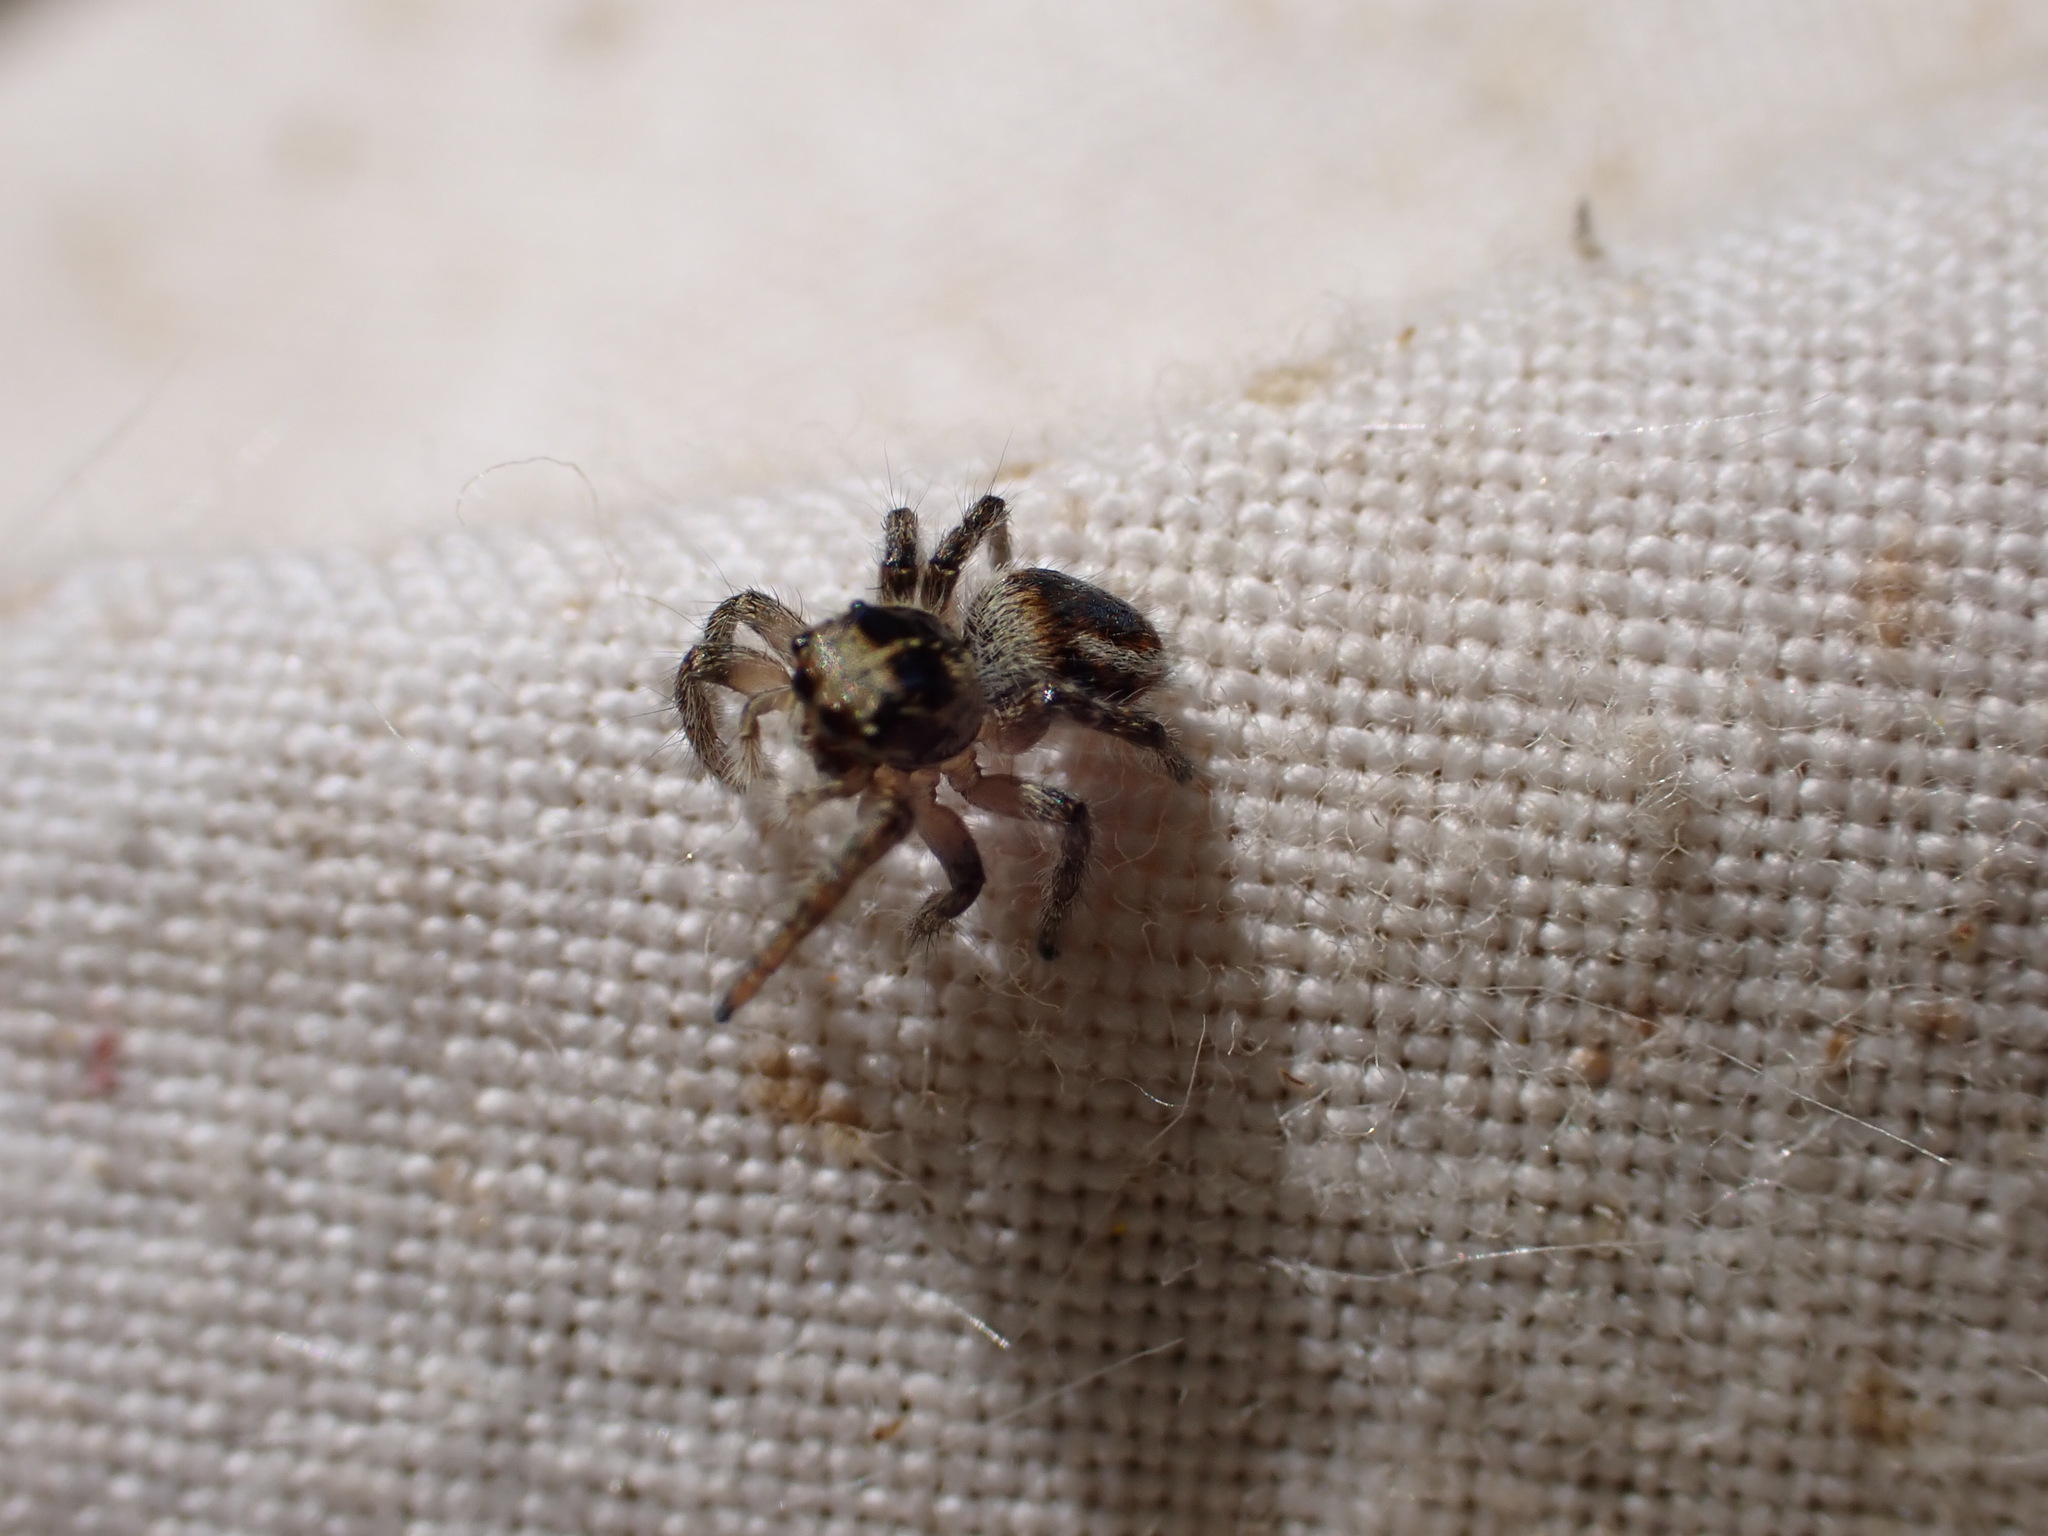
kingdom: Animalia
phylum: Arthropoda
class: Arachnida
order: Araneae
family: Salticidae
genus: Philaeus
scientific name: Philaeus chrysops
